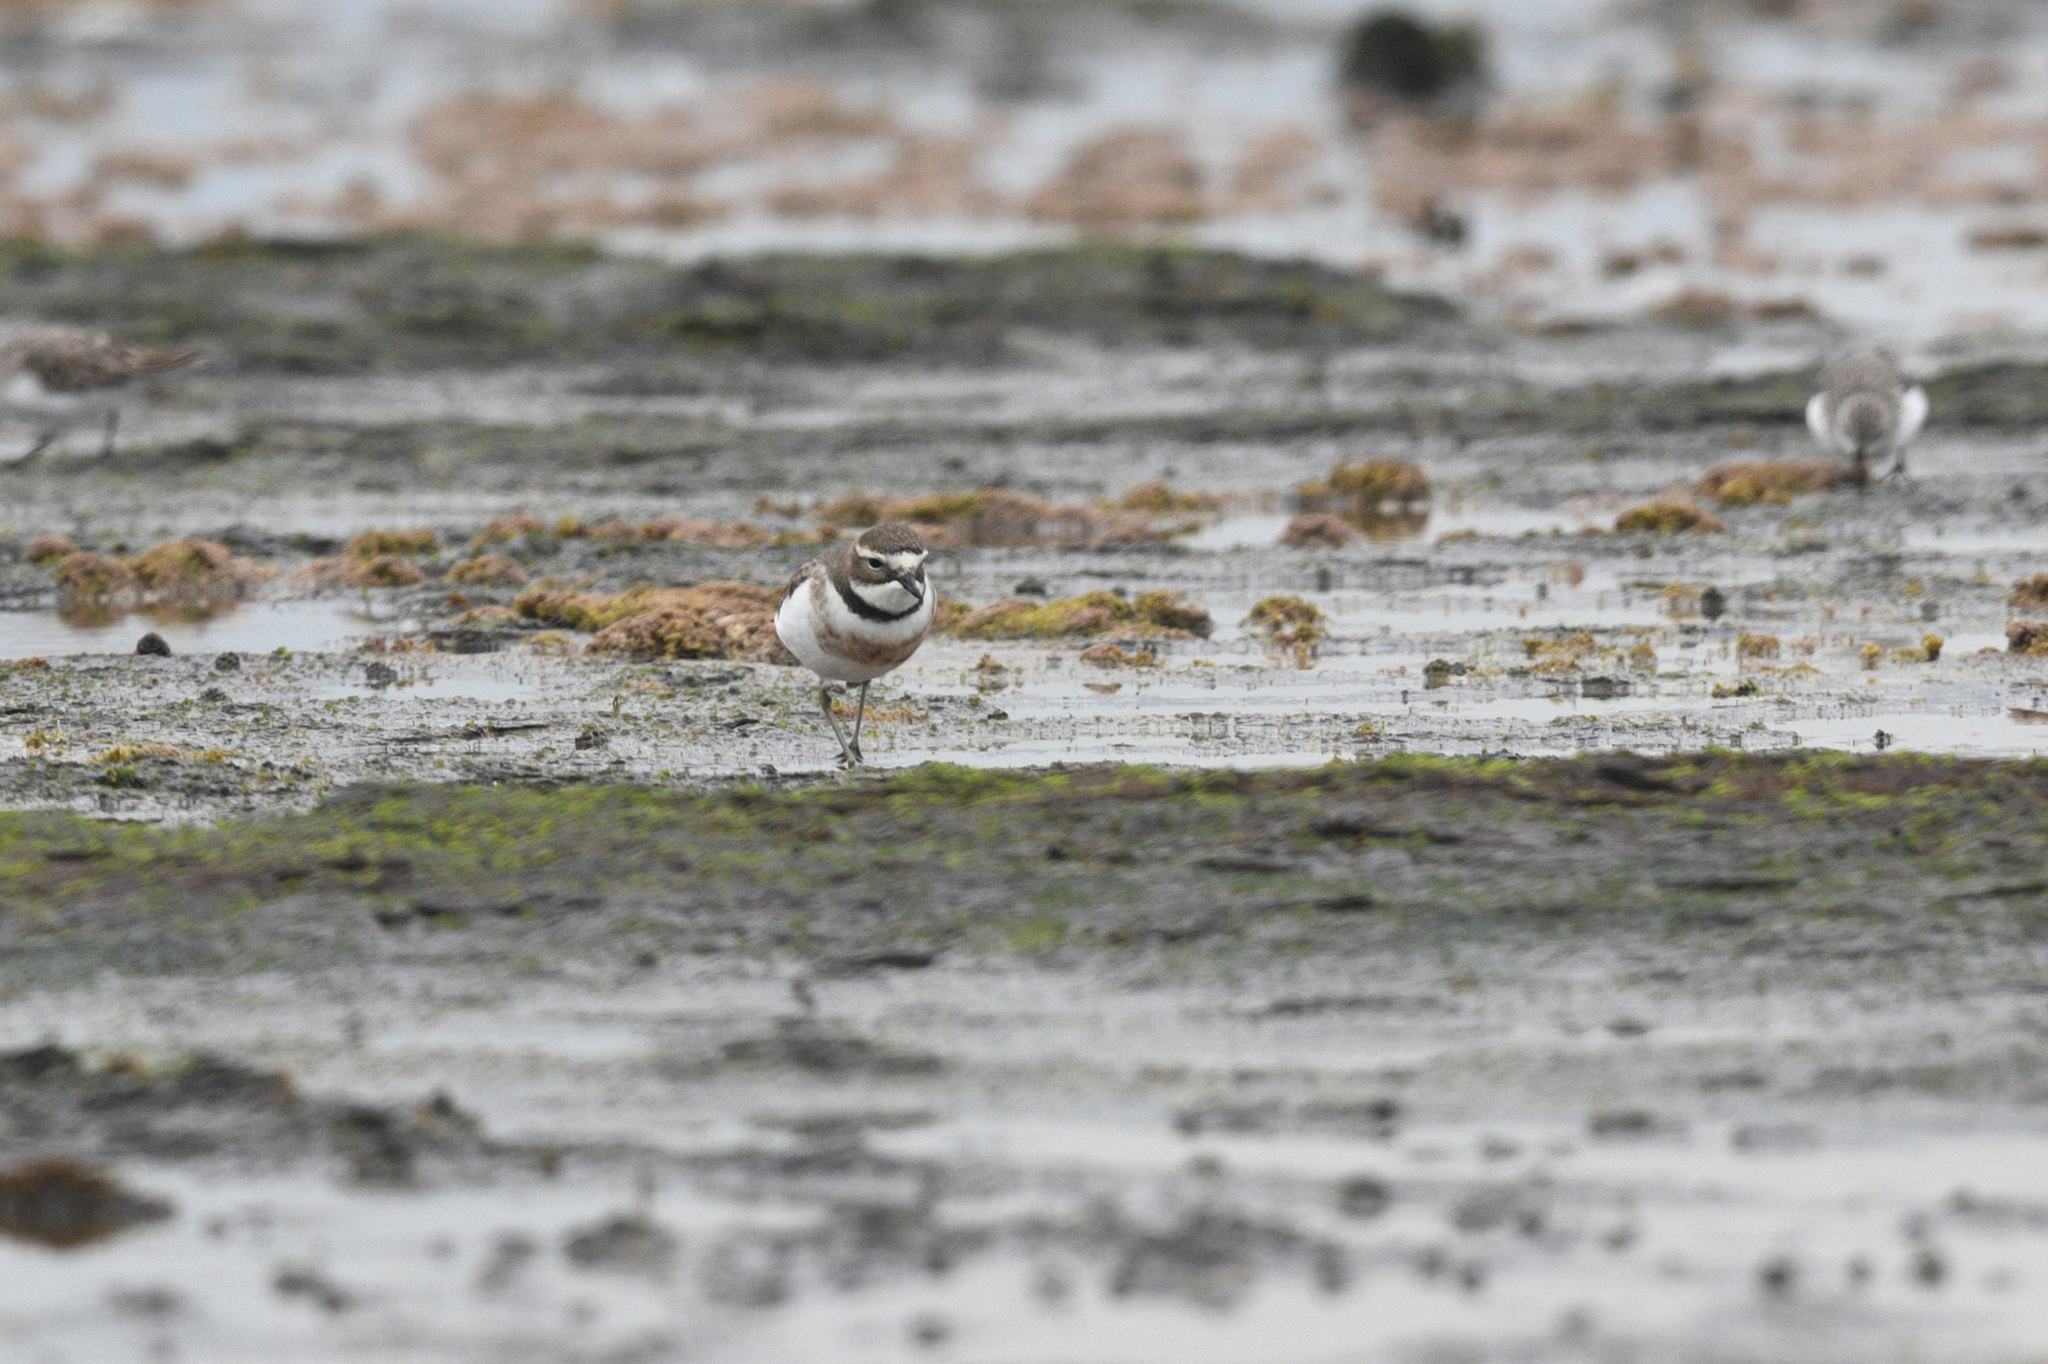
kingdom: Animalia
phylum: Chordata
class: Aves
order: Charadriiformes
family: Charadriidae
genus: Anarhynchus
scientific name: Anarhynchus
